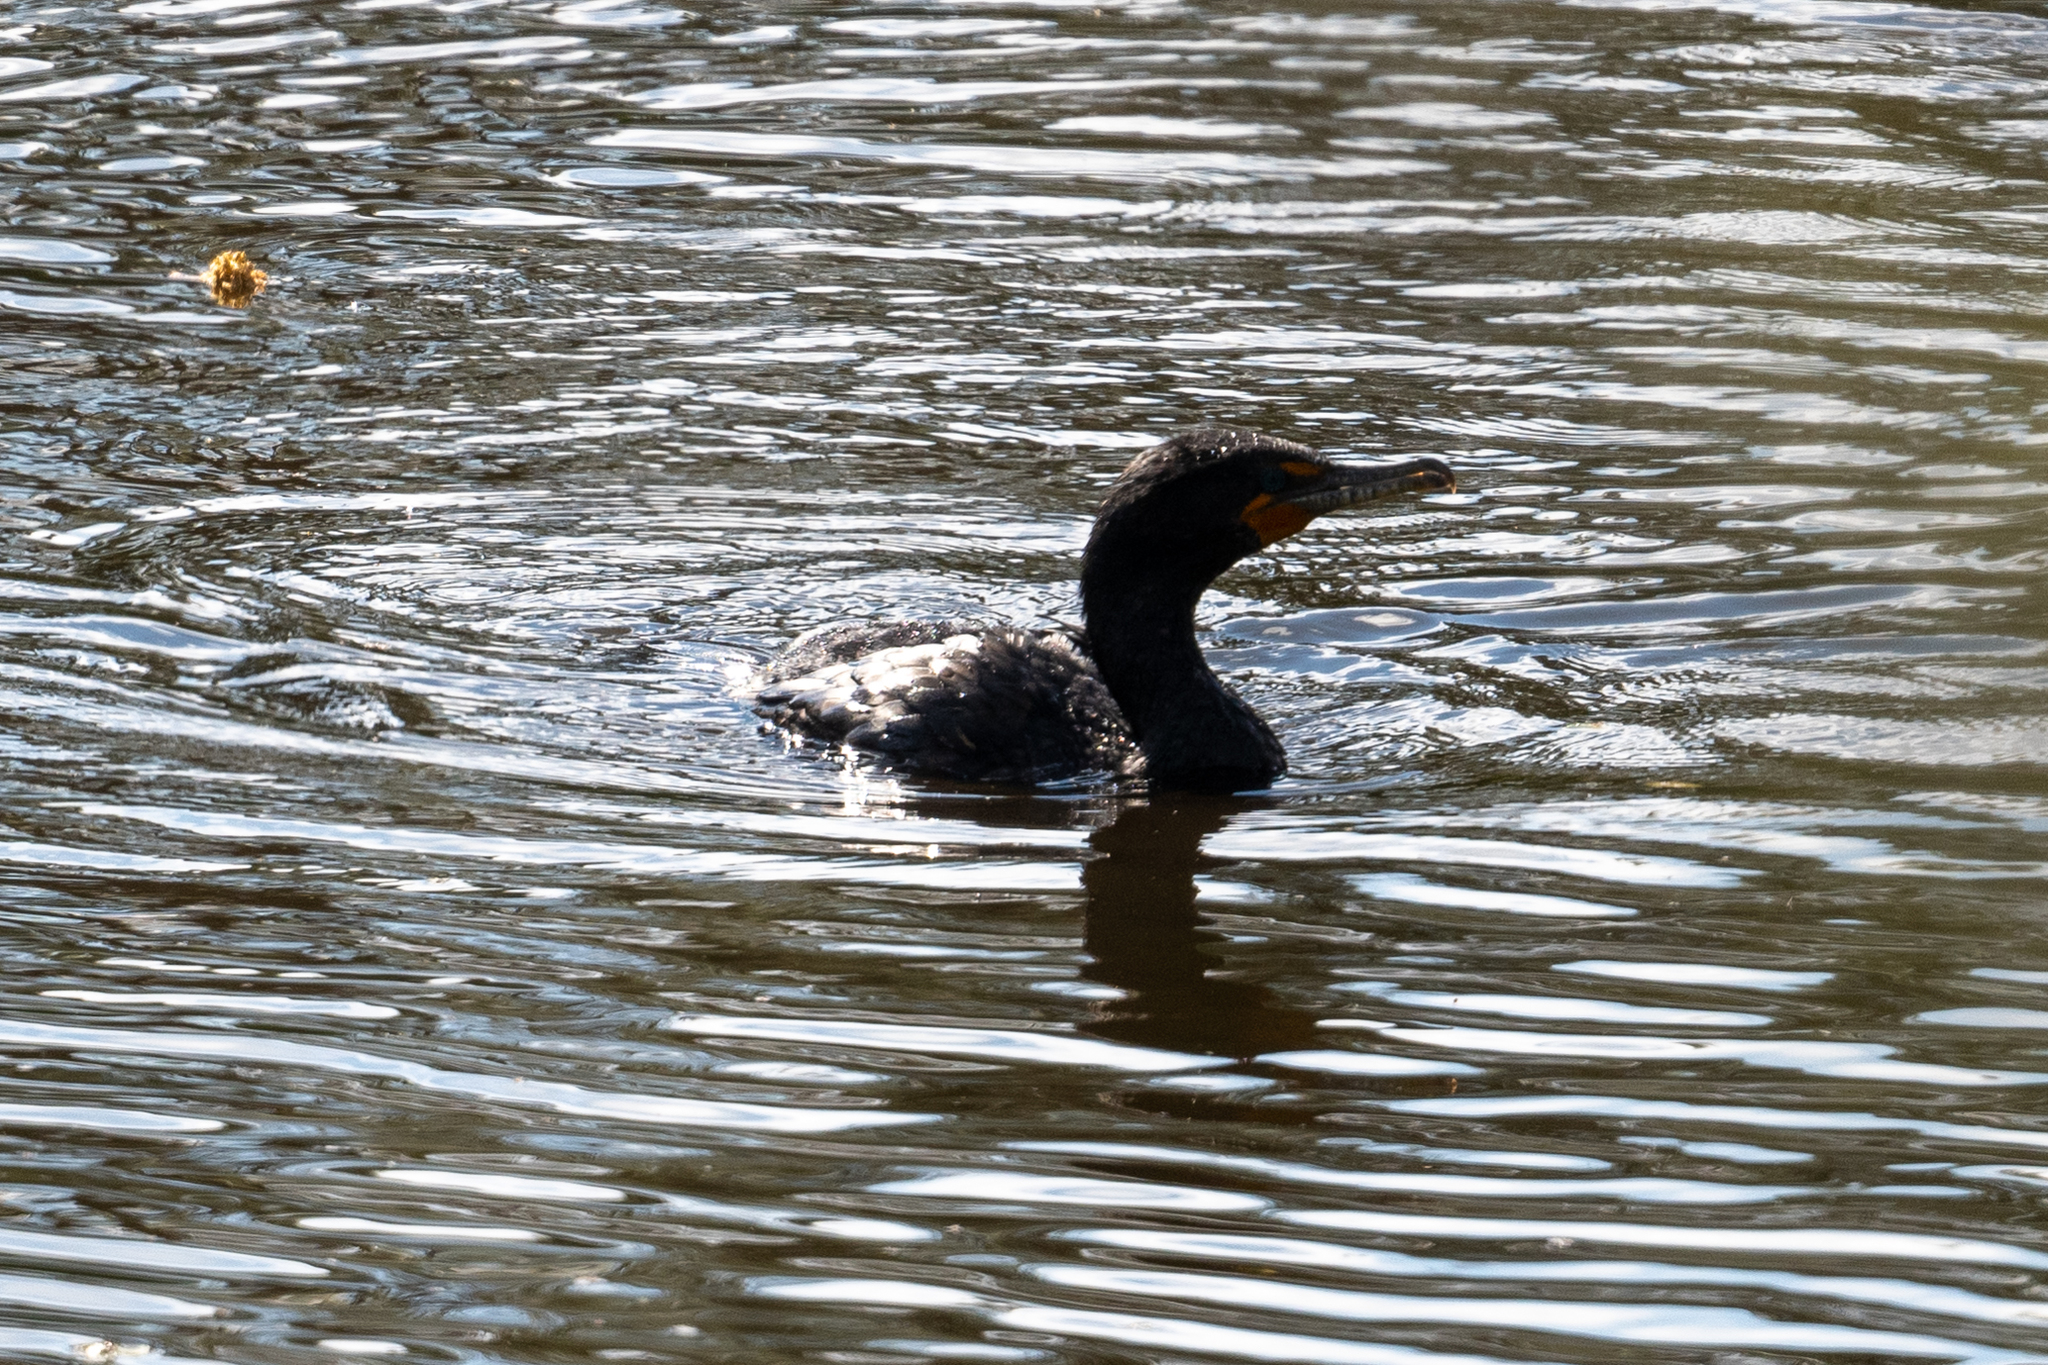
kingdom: Animalia
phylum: Chordata
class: Aves
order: Suliformes
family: Phalacrocoracidae
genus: Phalacrocorax
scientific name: Phalacrocorax auritus
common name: Double-crested cormorant
